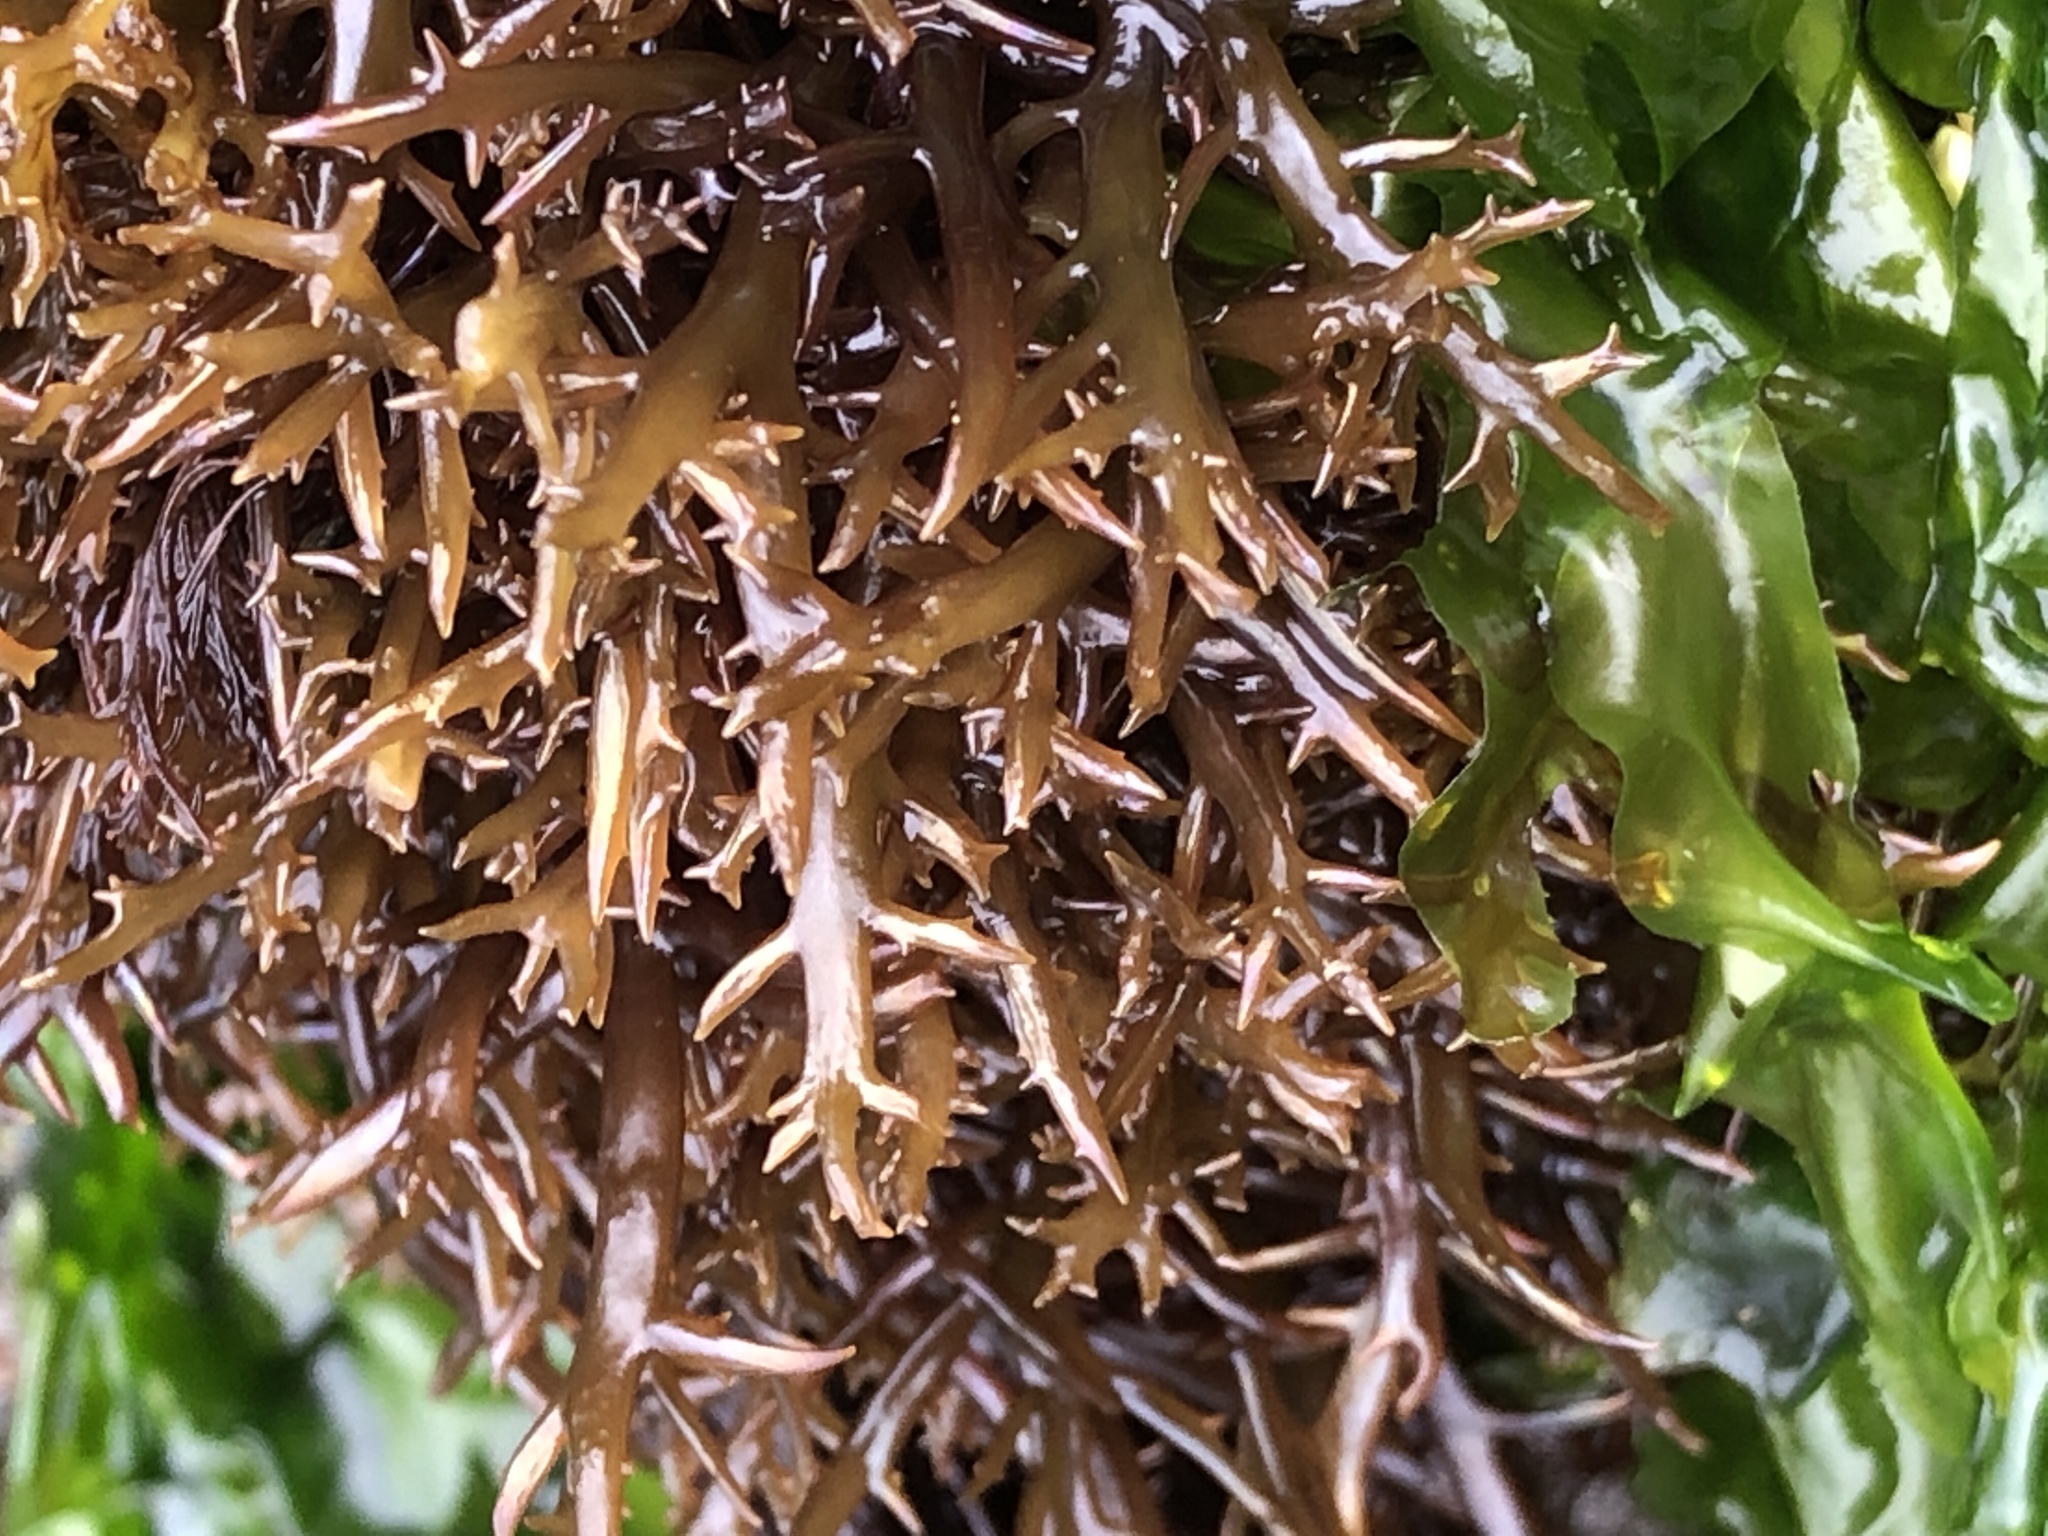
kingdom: Plantae
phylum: Rhodophyta
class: Florideophyceae
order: Gigartinales
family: Gigartinaceae
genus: Chondracanthus
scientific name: Chondracanthus canaliculatus
